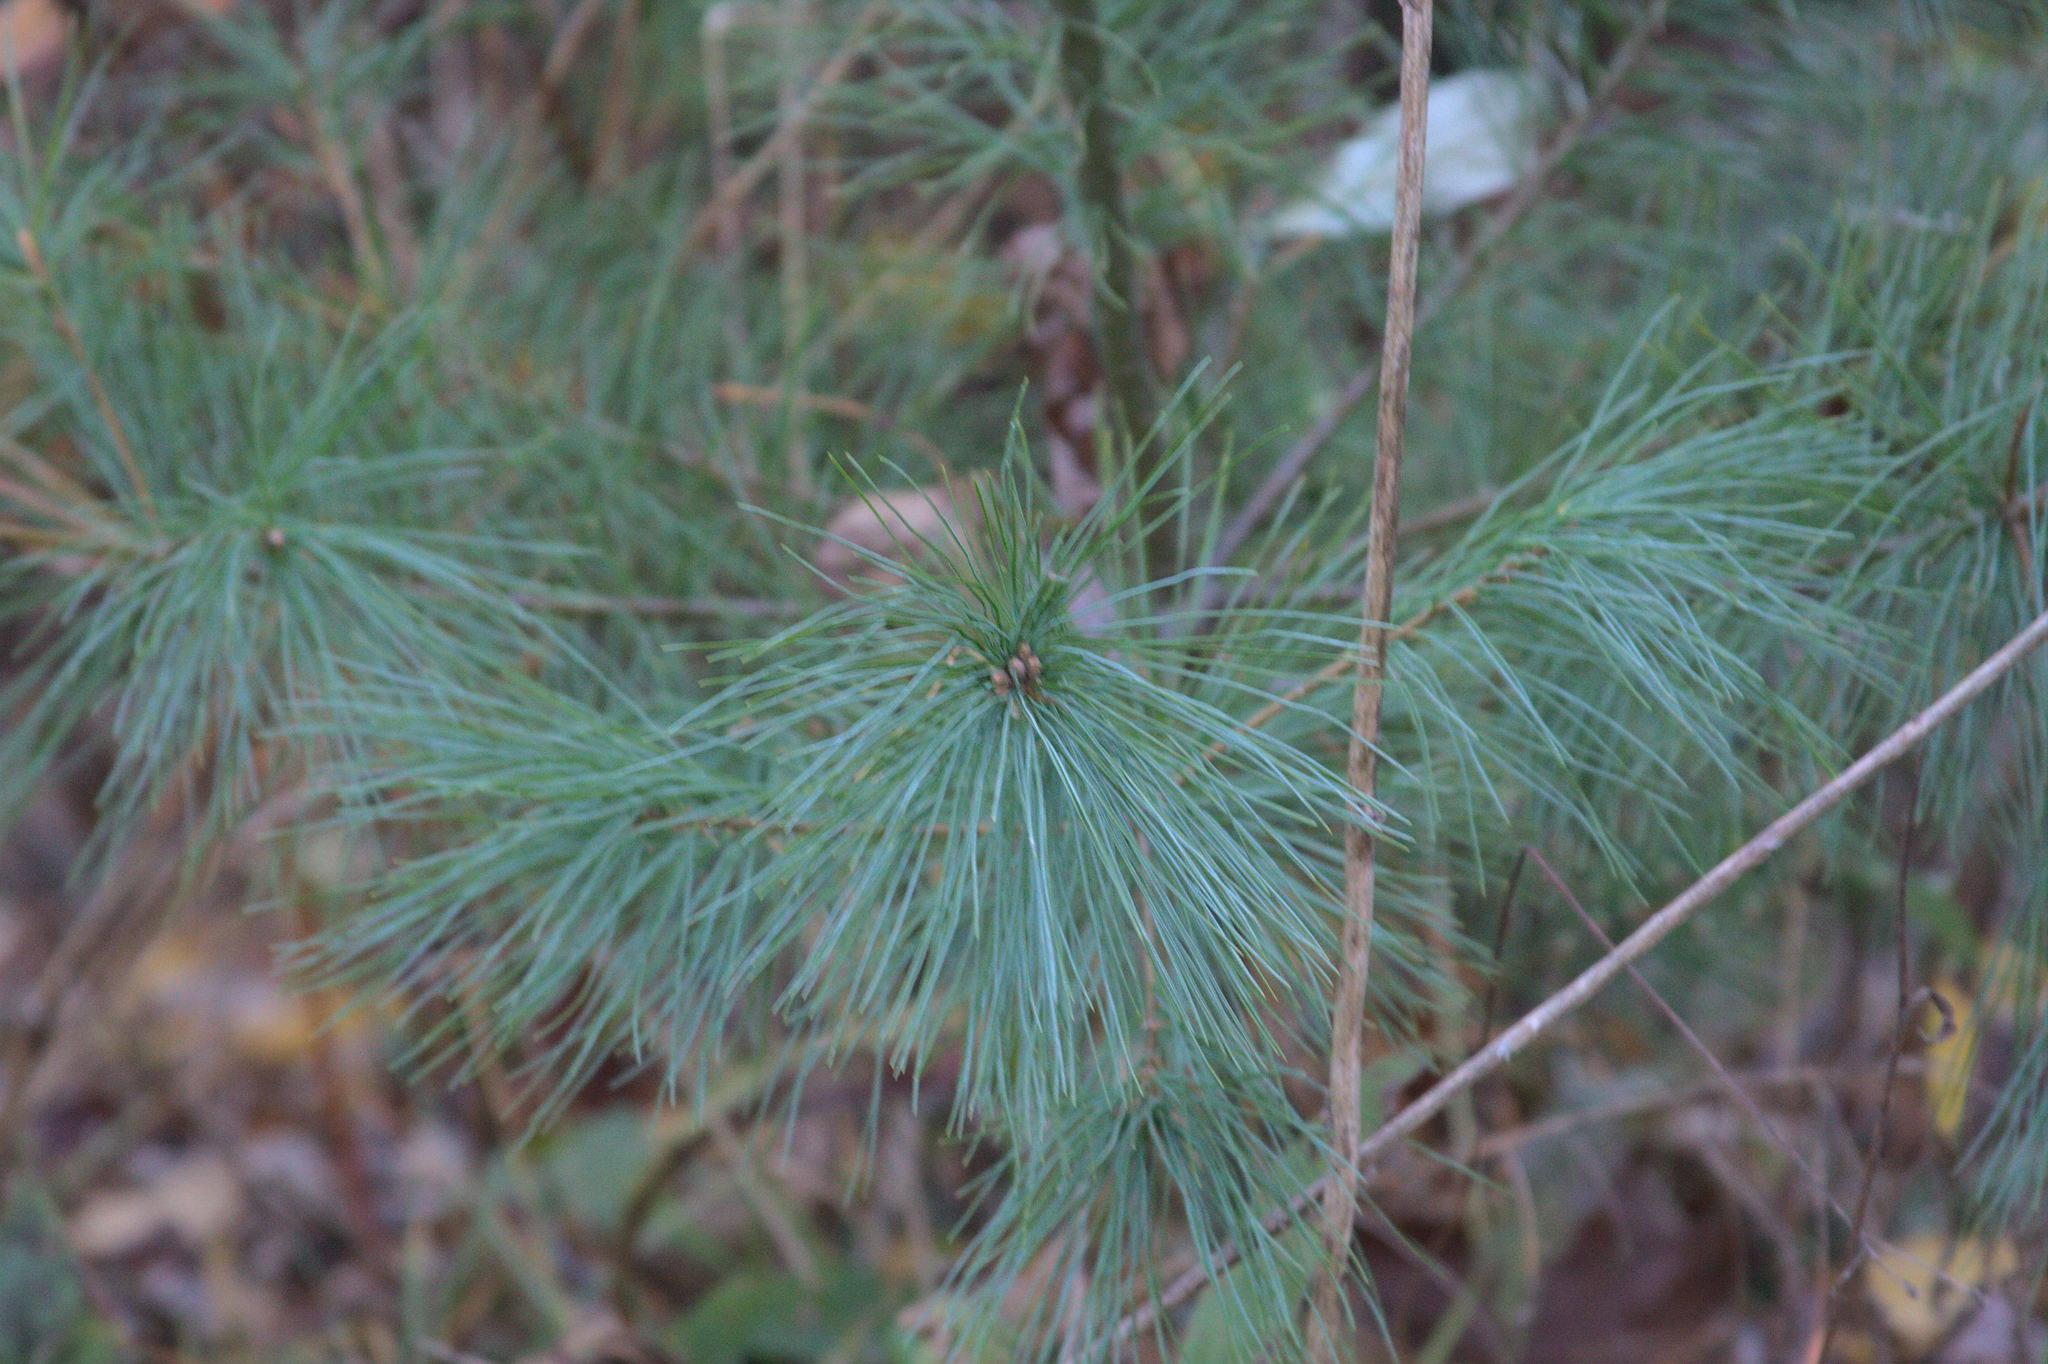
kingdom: Plantae
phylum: Tracheophyta
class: Pinopsida
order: Pinales
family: Pinaceae
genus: Pinus
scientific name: Pinus strobus
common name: Weymouth pine
